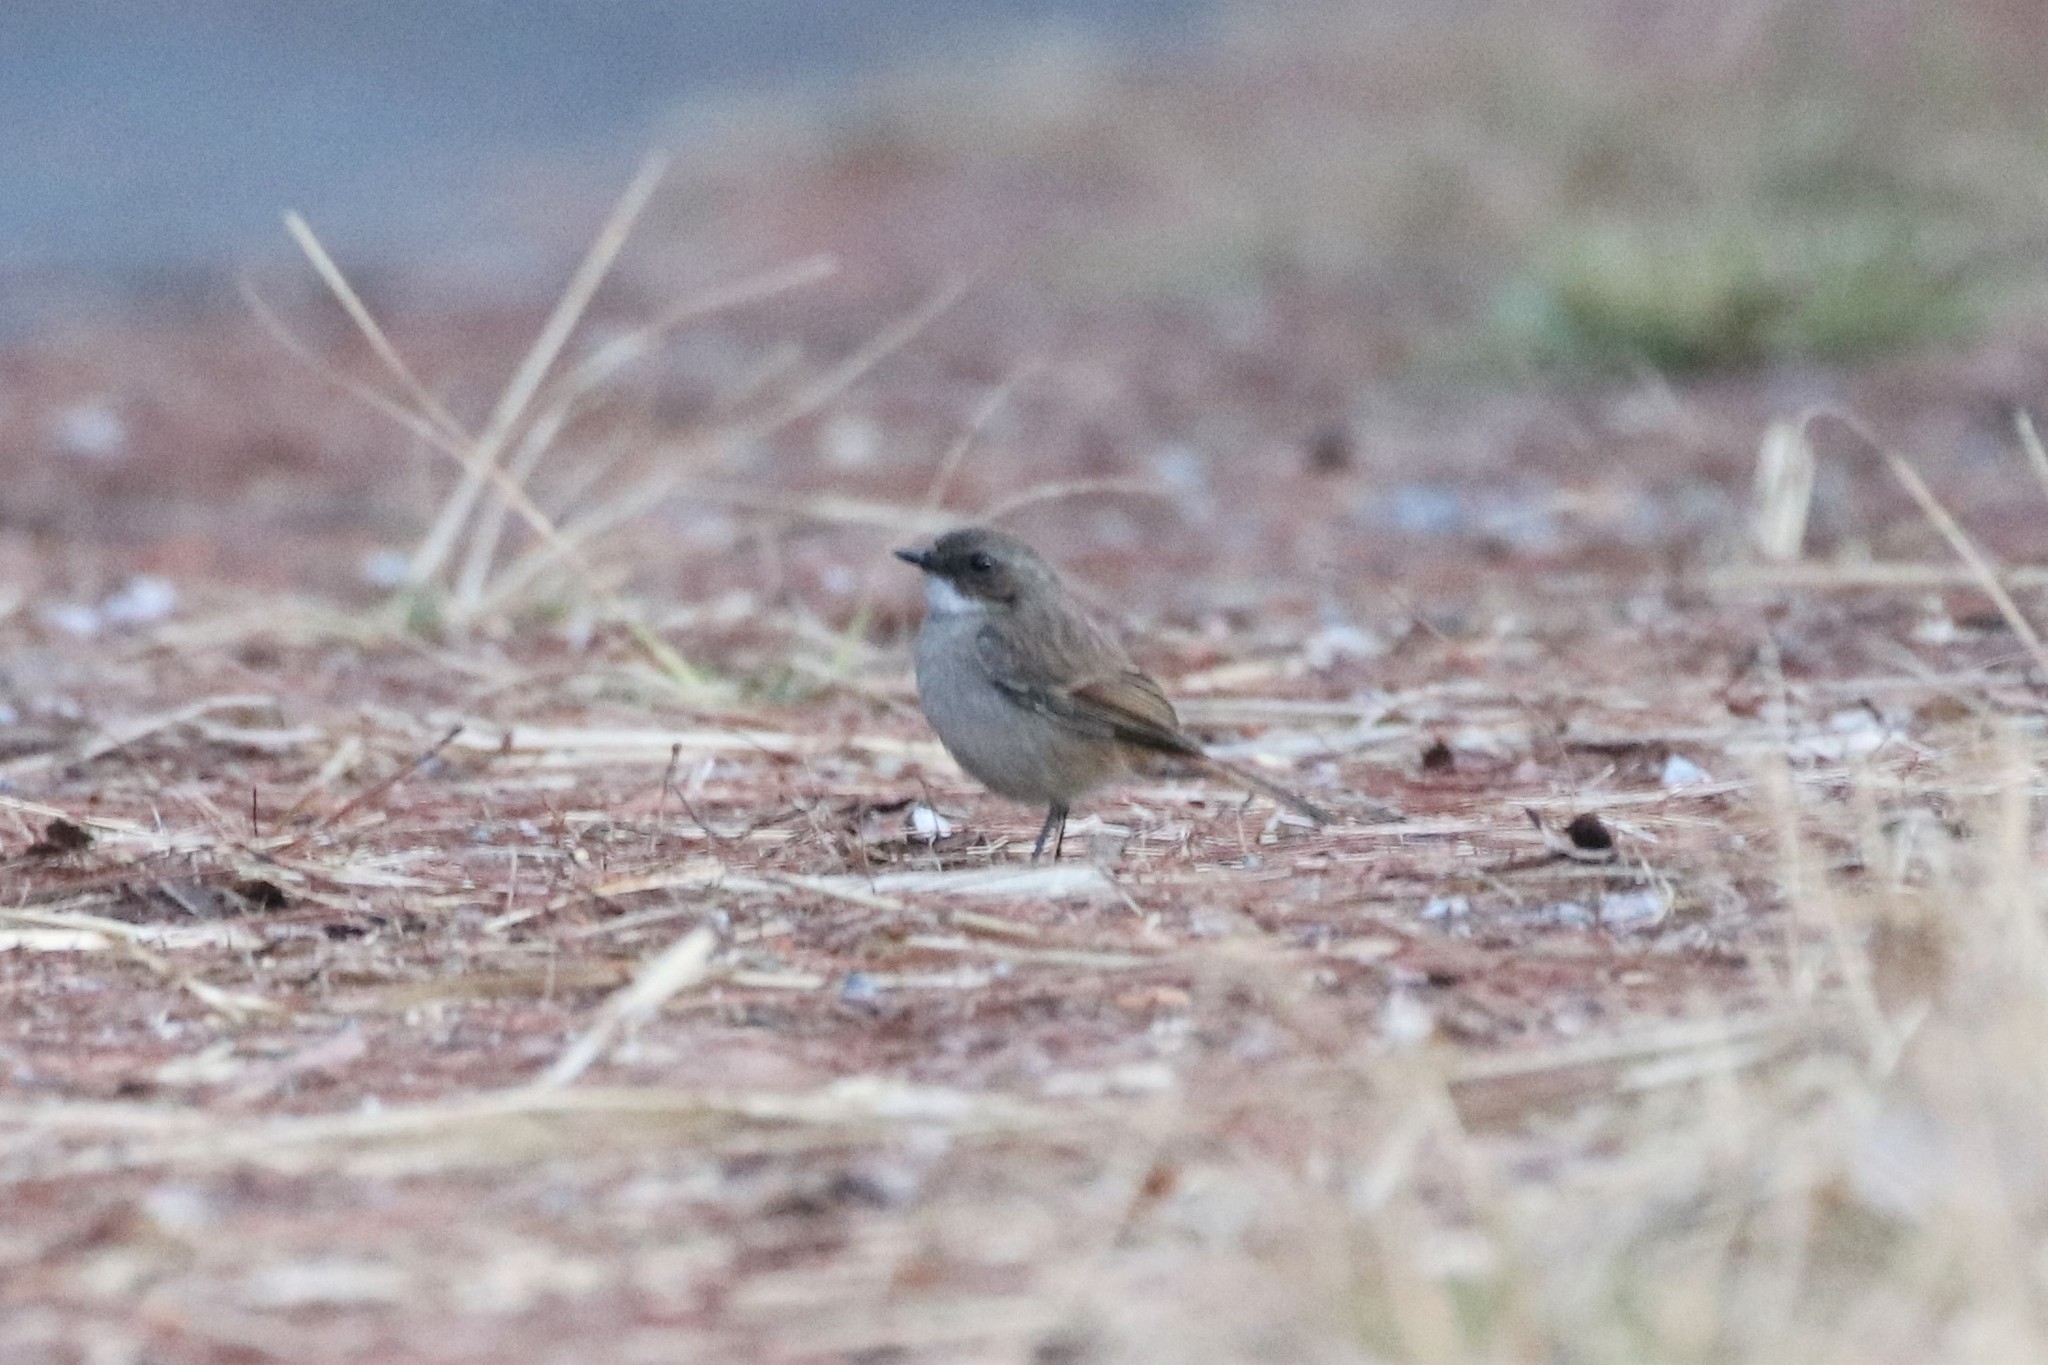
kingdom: Animalia
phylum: Chordata
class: Aves
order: Passeriformes
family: Muscicapidae
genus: Saxicola
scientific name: Saxicola ferreus
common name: Grey bush chat
